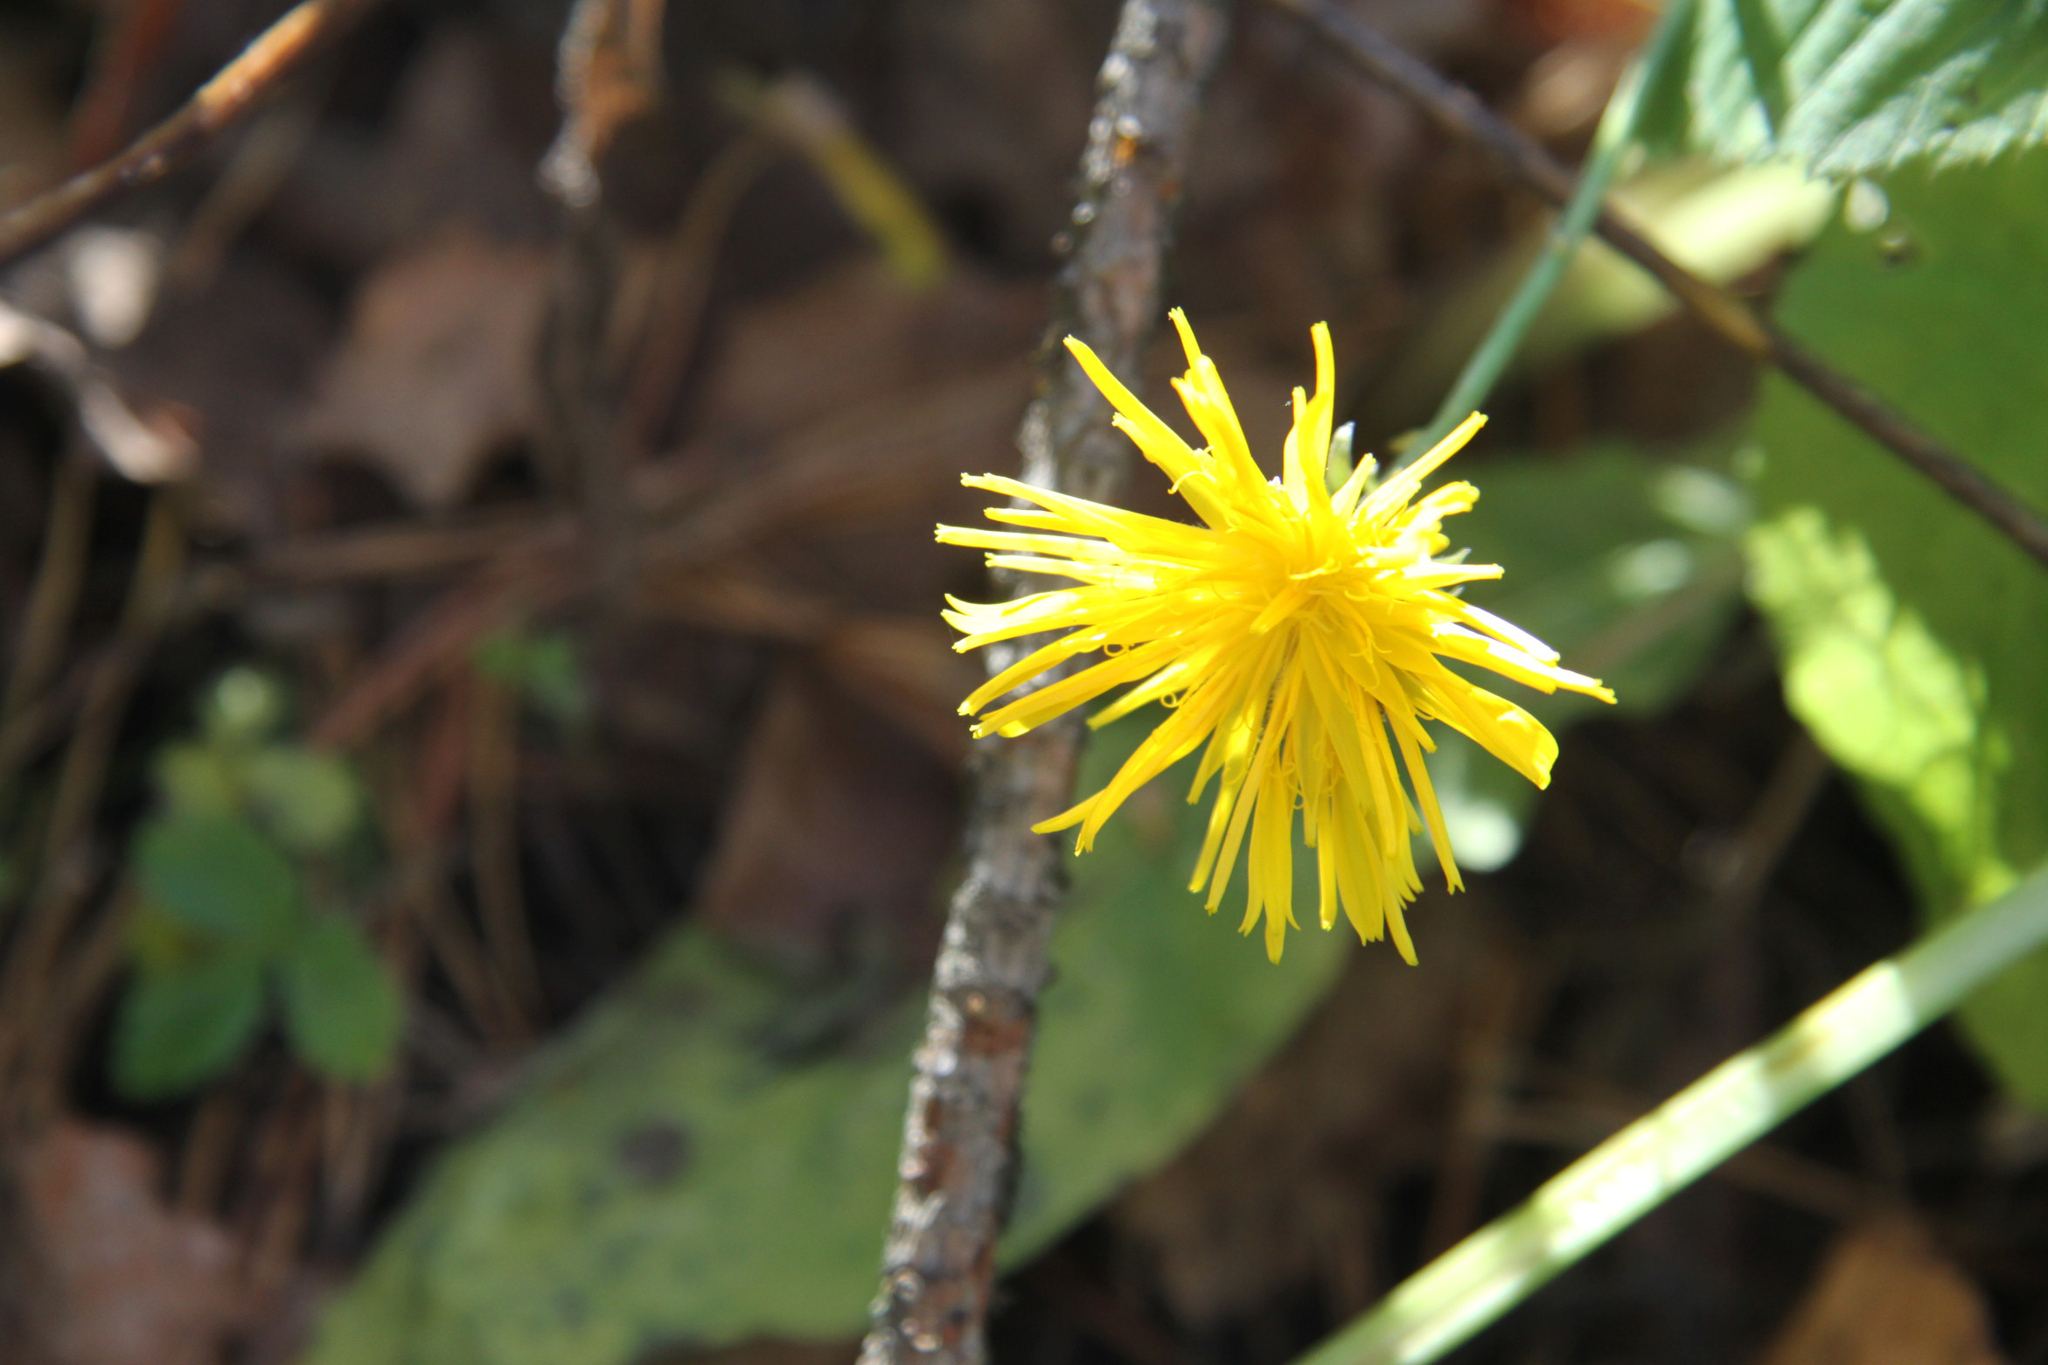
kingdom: Plantae
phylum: Tracheophyta
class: Magnoliopsida
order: Asterales
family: Asteraceae
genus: Sonchus
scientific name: Sonchus arvensis
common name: Perennial sow-thistle
